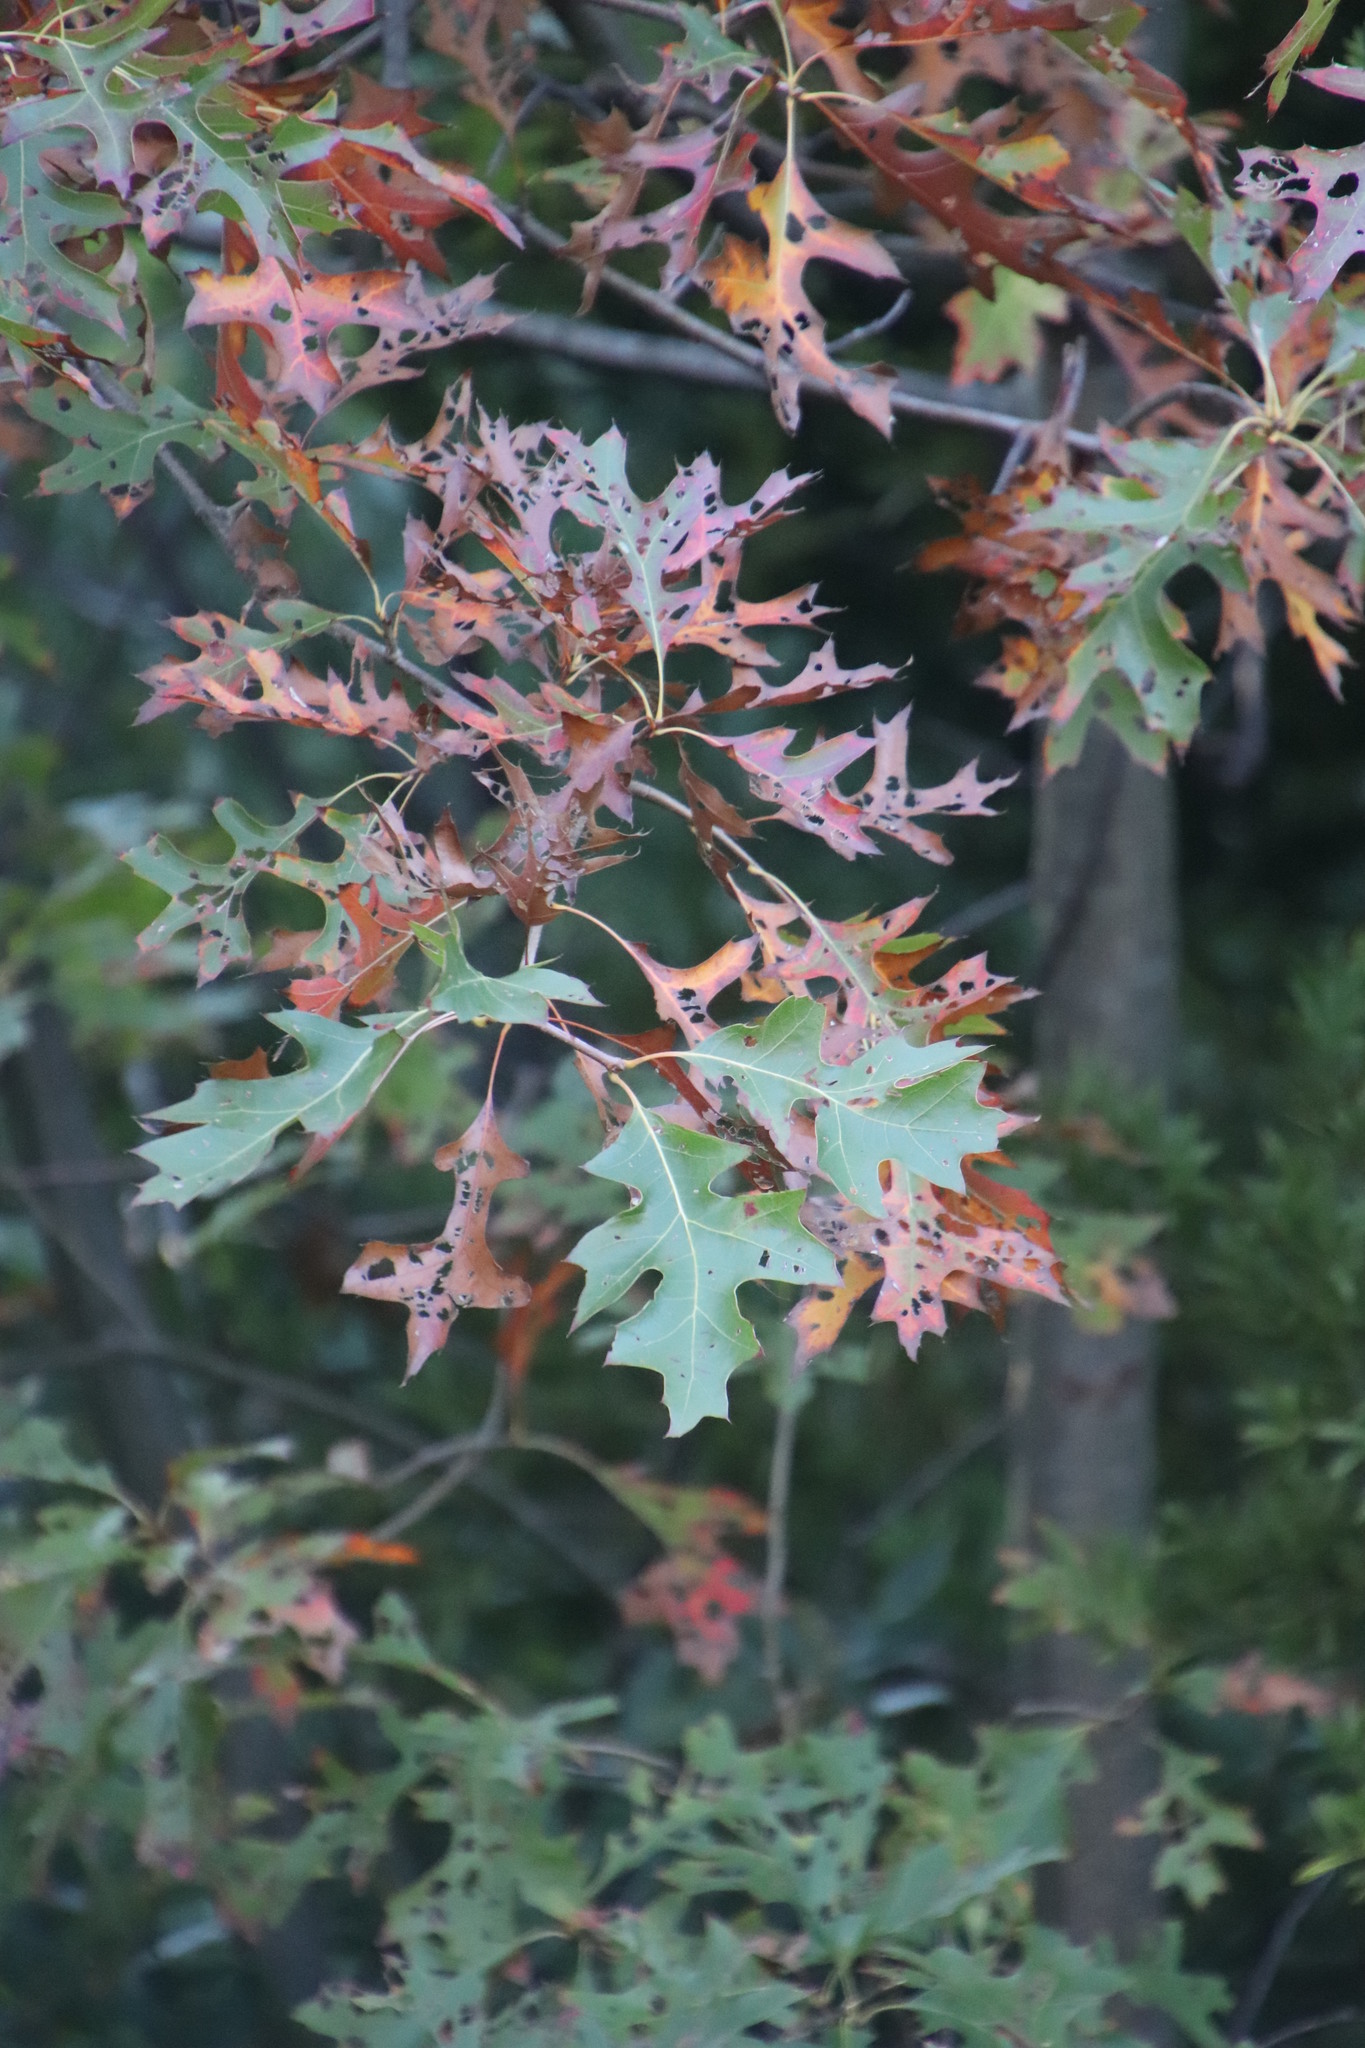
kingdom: Plantae
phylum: Tracheophyta
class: Magnoliopsida
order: Fagales
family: Fagaceae
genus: Quercus
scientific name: Quercus palustris
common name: Pin oak
